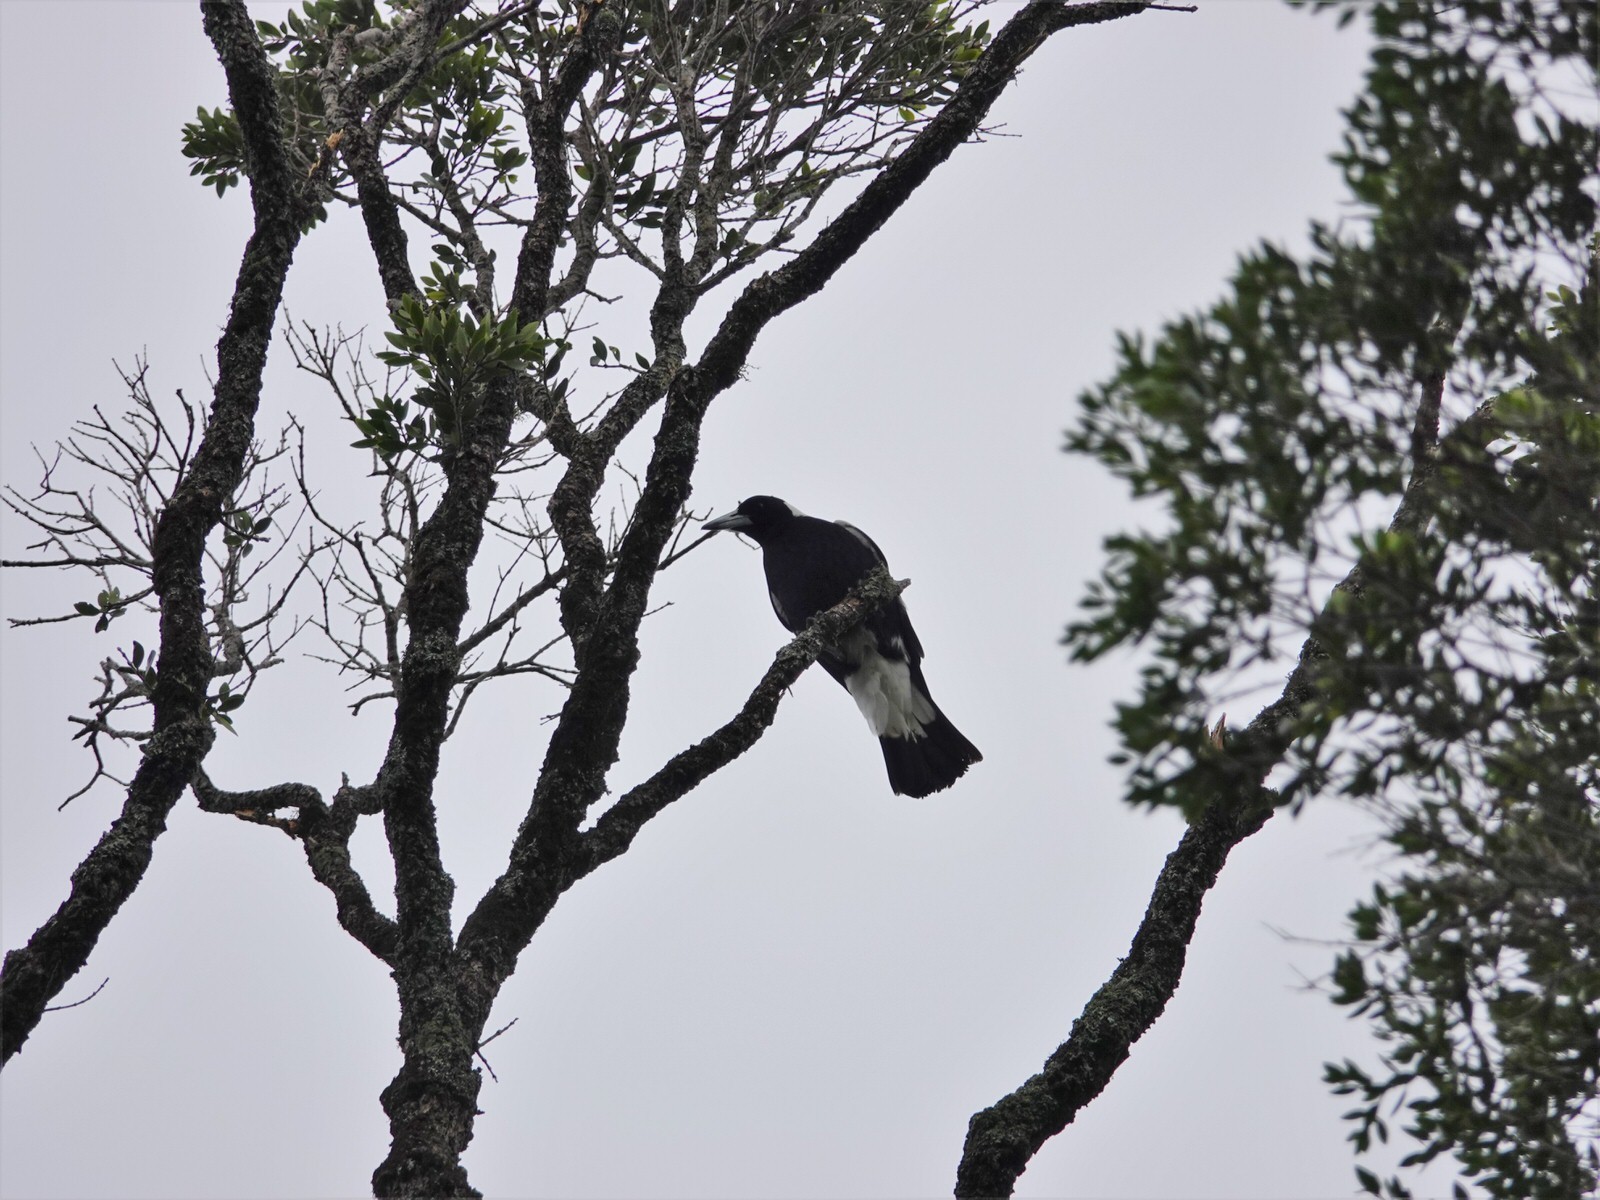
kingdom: Animalia
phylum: Chordata
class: Aves
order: Passeriformes
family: Cracticidae
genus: Gymnorhina
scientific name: Gymnorhina tibicen
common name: Australian magpie
